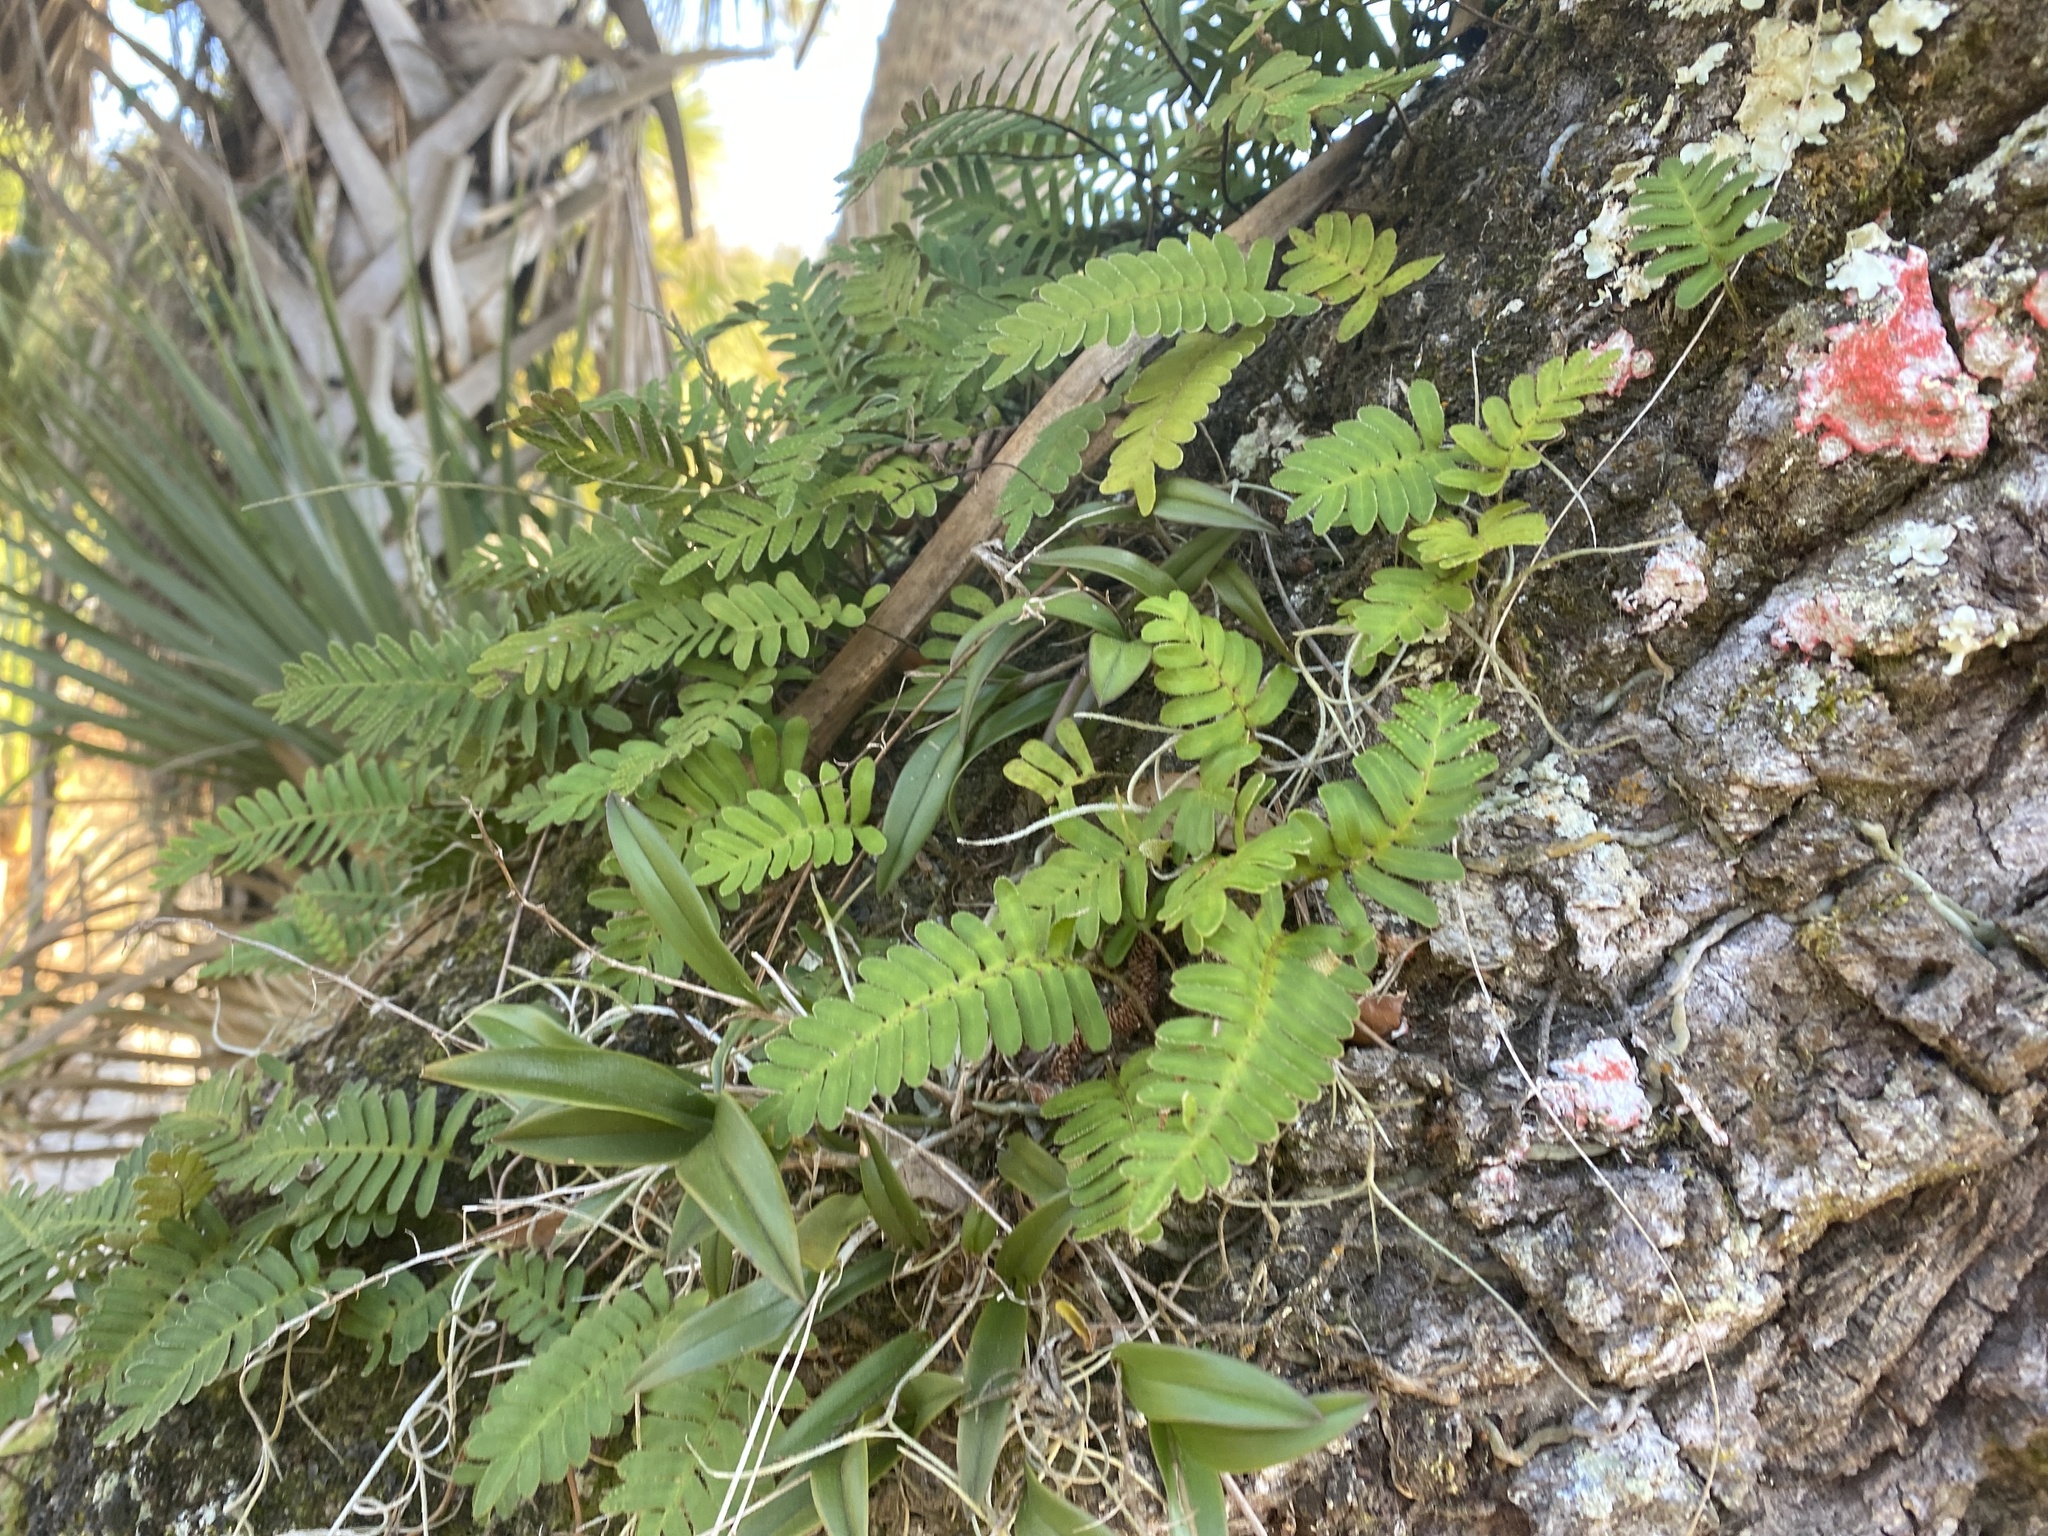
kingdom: Plantae
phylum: Tracheophyta
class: Polypodiopsida
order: Polypodiales
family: Polypodiaceae
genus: Pleopeltis
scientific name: Pleopeltis michauxiana
